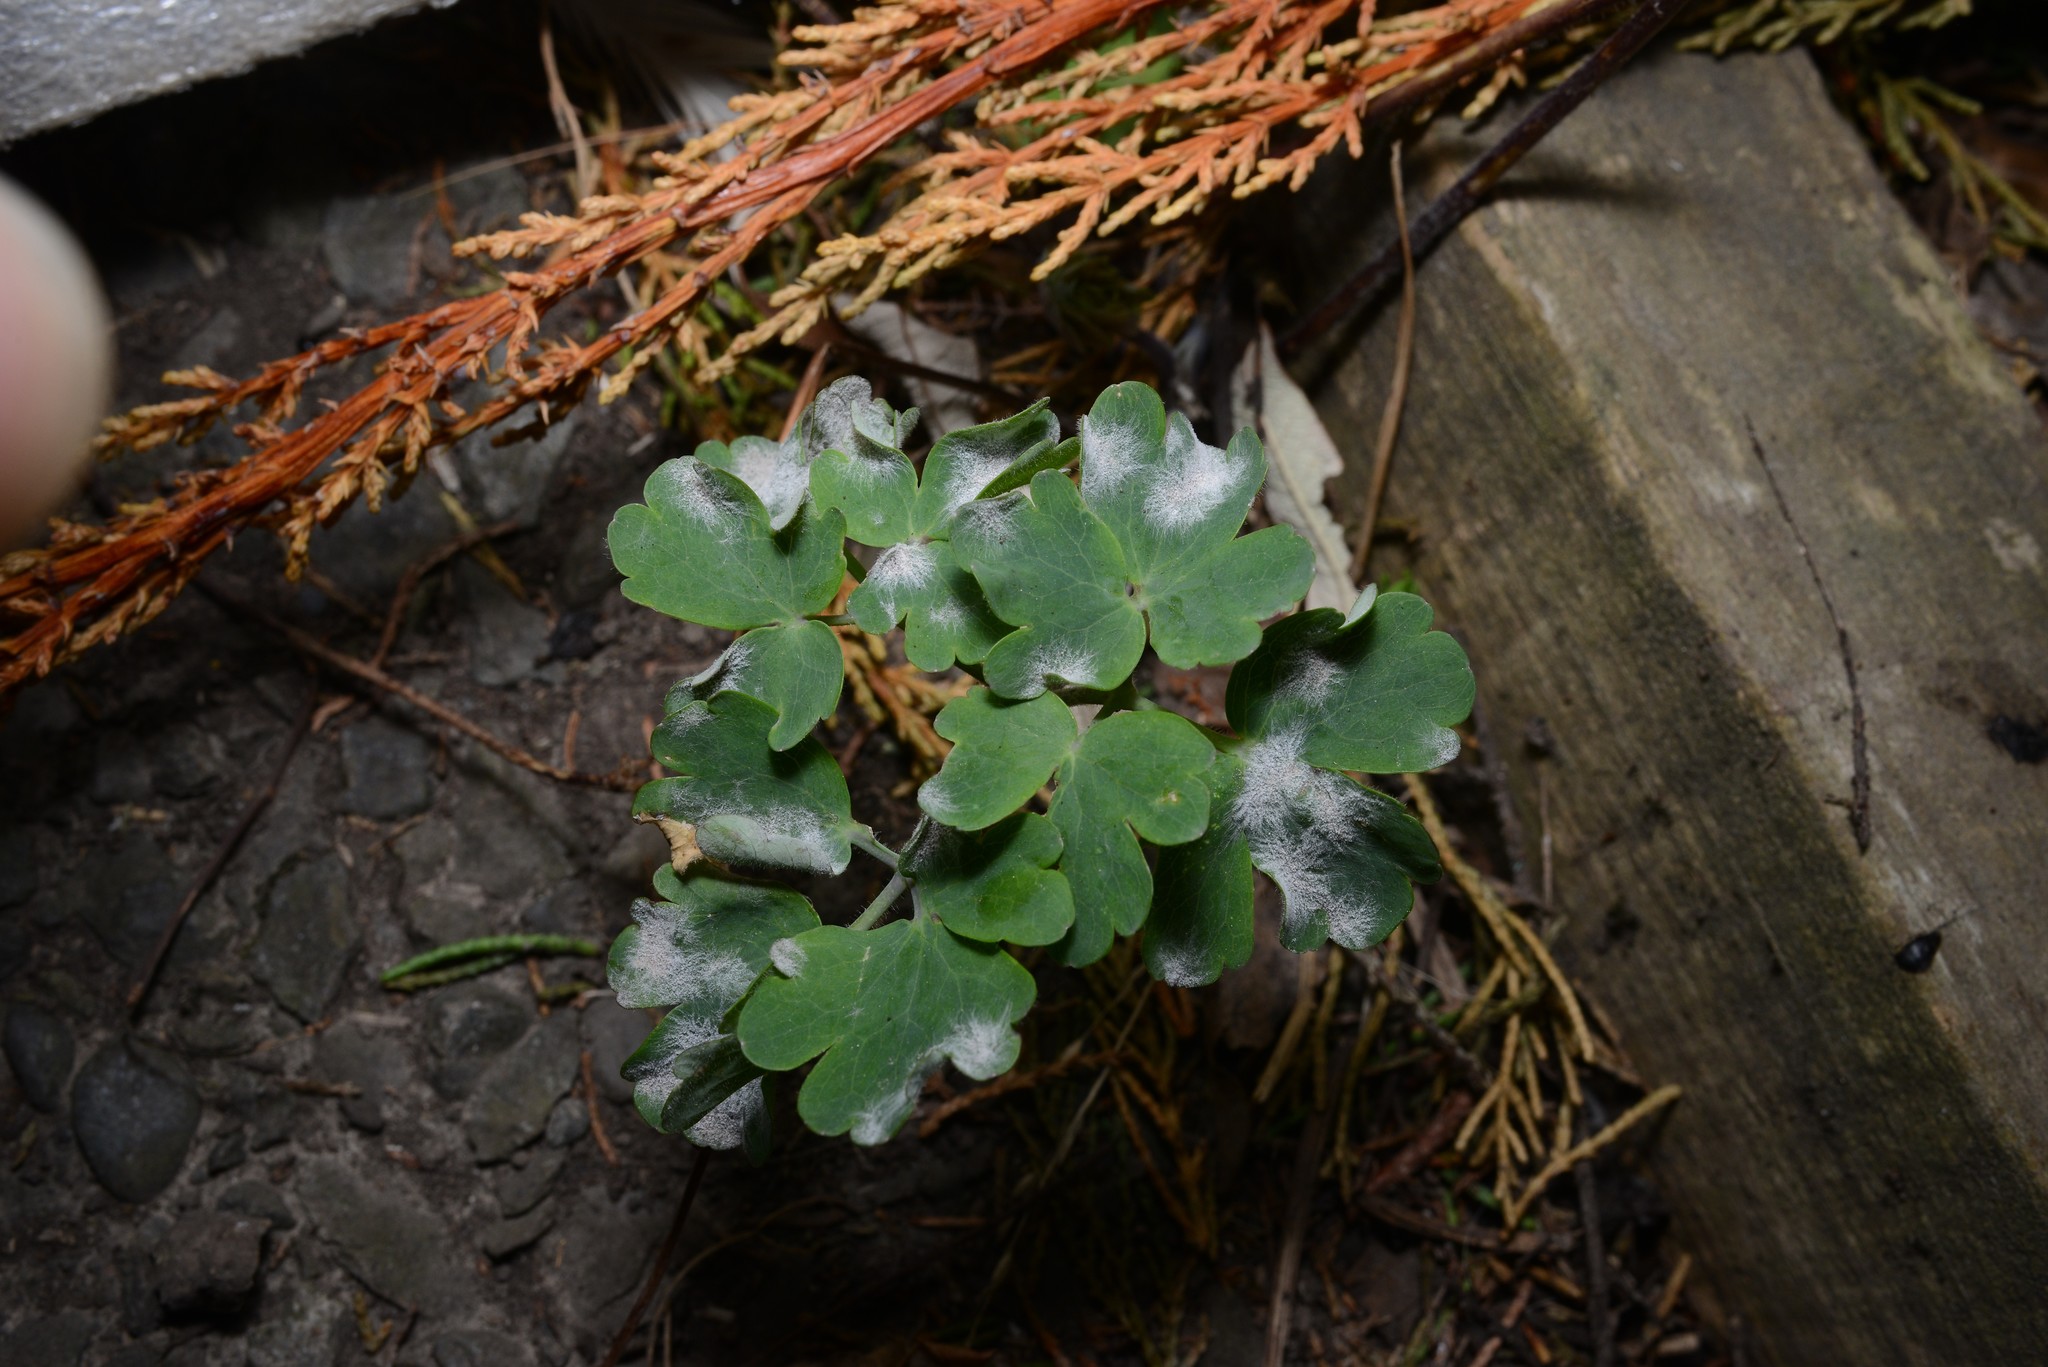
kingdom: Plantae
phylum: Tracheophyta
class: Magnoliopsida
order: Ranunculales
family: Ranunculaceae
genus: Aquilegia
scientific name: Aquilegia vulgaris
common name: Columbine
